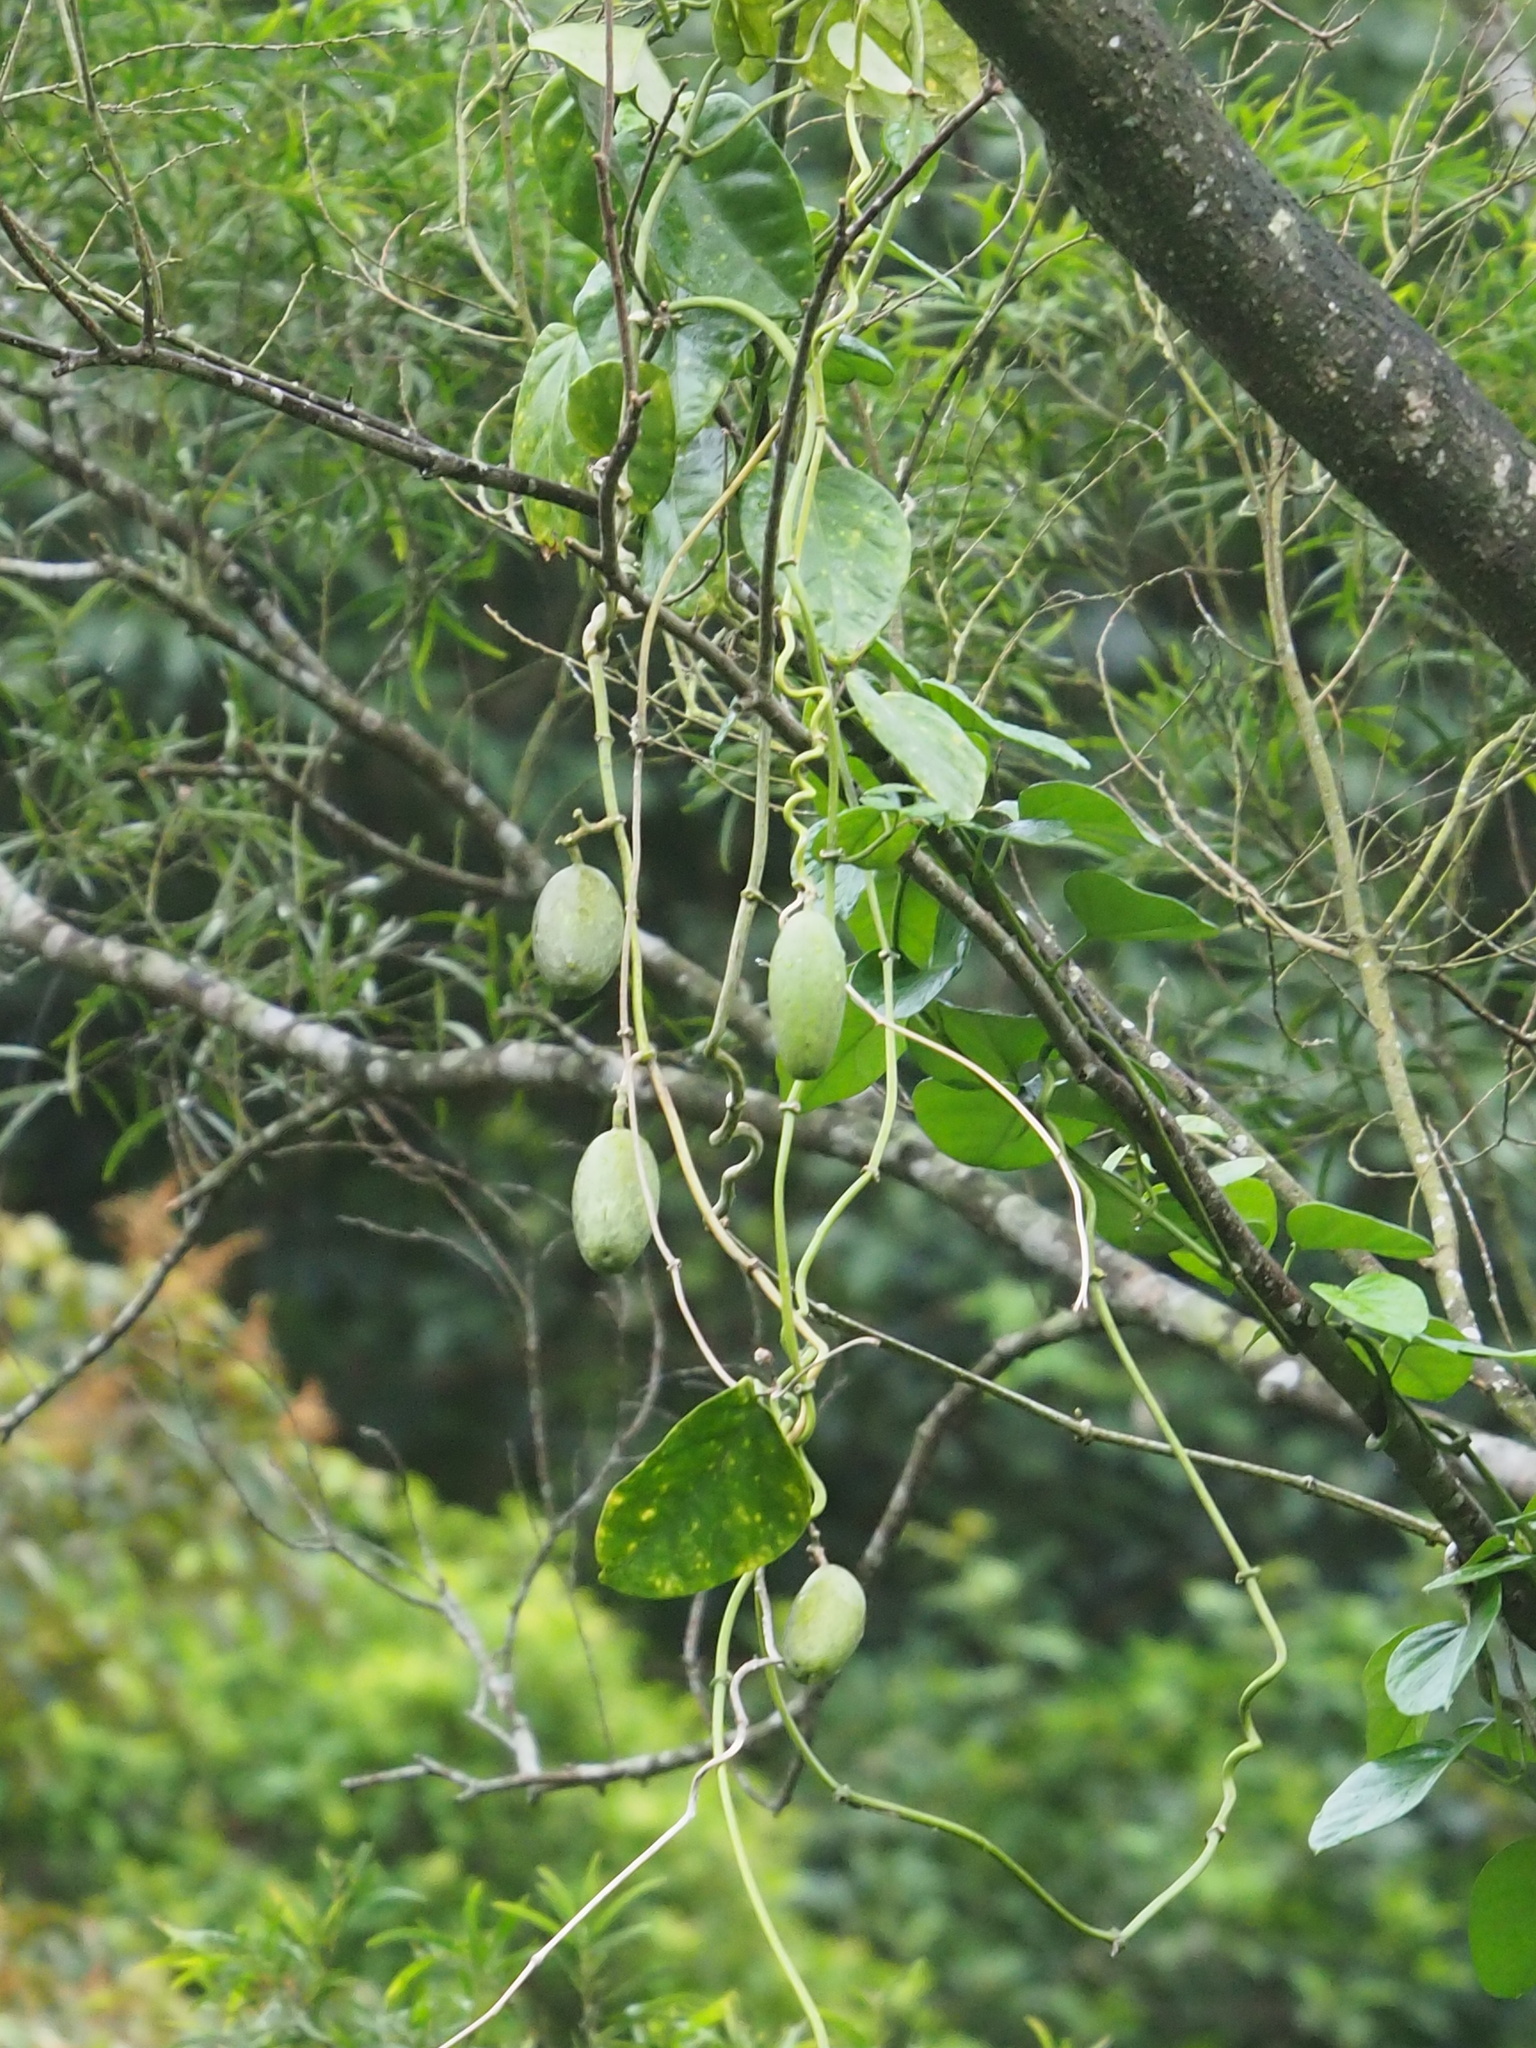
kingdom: Plantae
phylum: Tracheophyta
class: Magnoliopsida
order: Gentianales
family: Apocynaceae
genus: Sinomarsdenia
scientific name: Sinomarsdenia formosana
